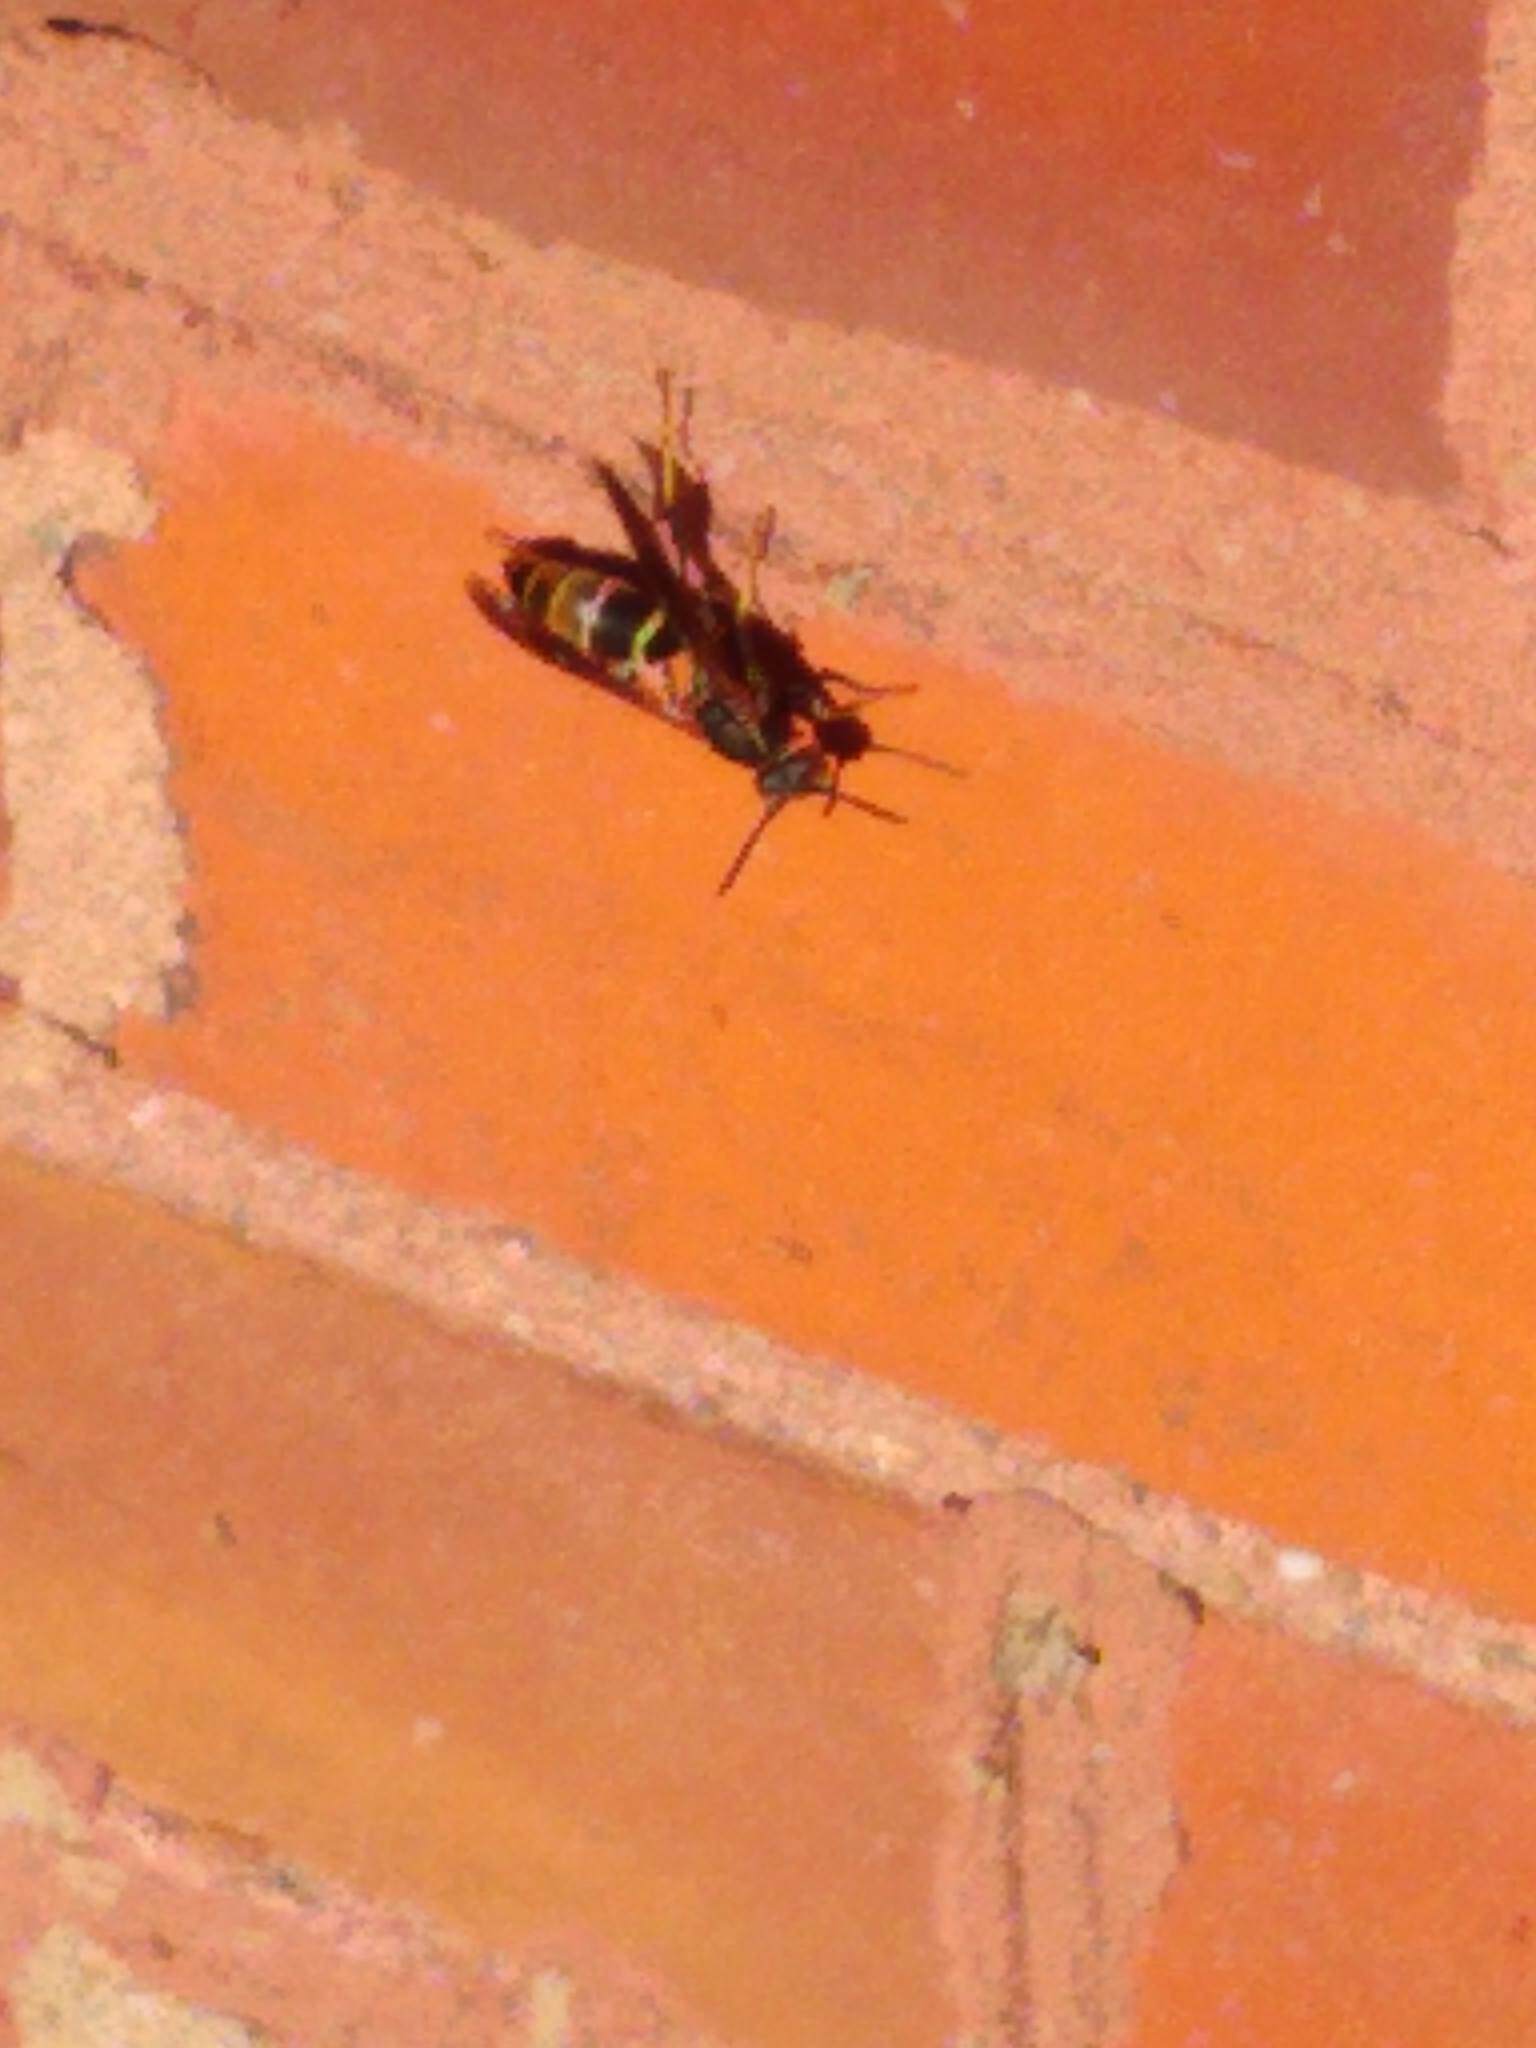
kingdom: Animalia
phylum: Arthropoda
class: Insecta
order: Hymenoptera
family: Eumenidae
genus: Polistes
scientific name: Polistes fuscatus
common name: Dark paper wasp
